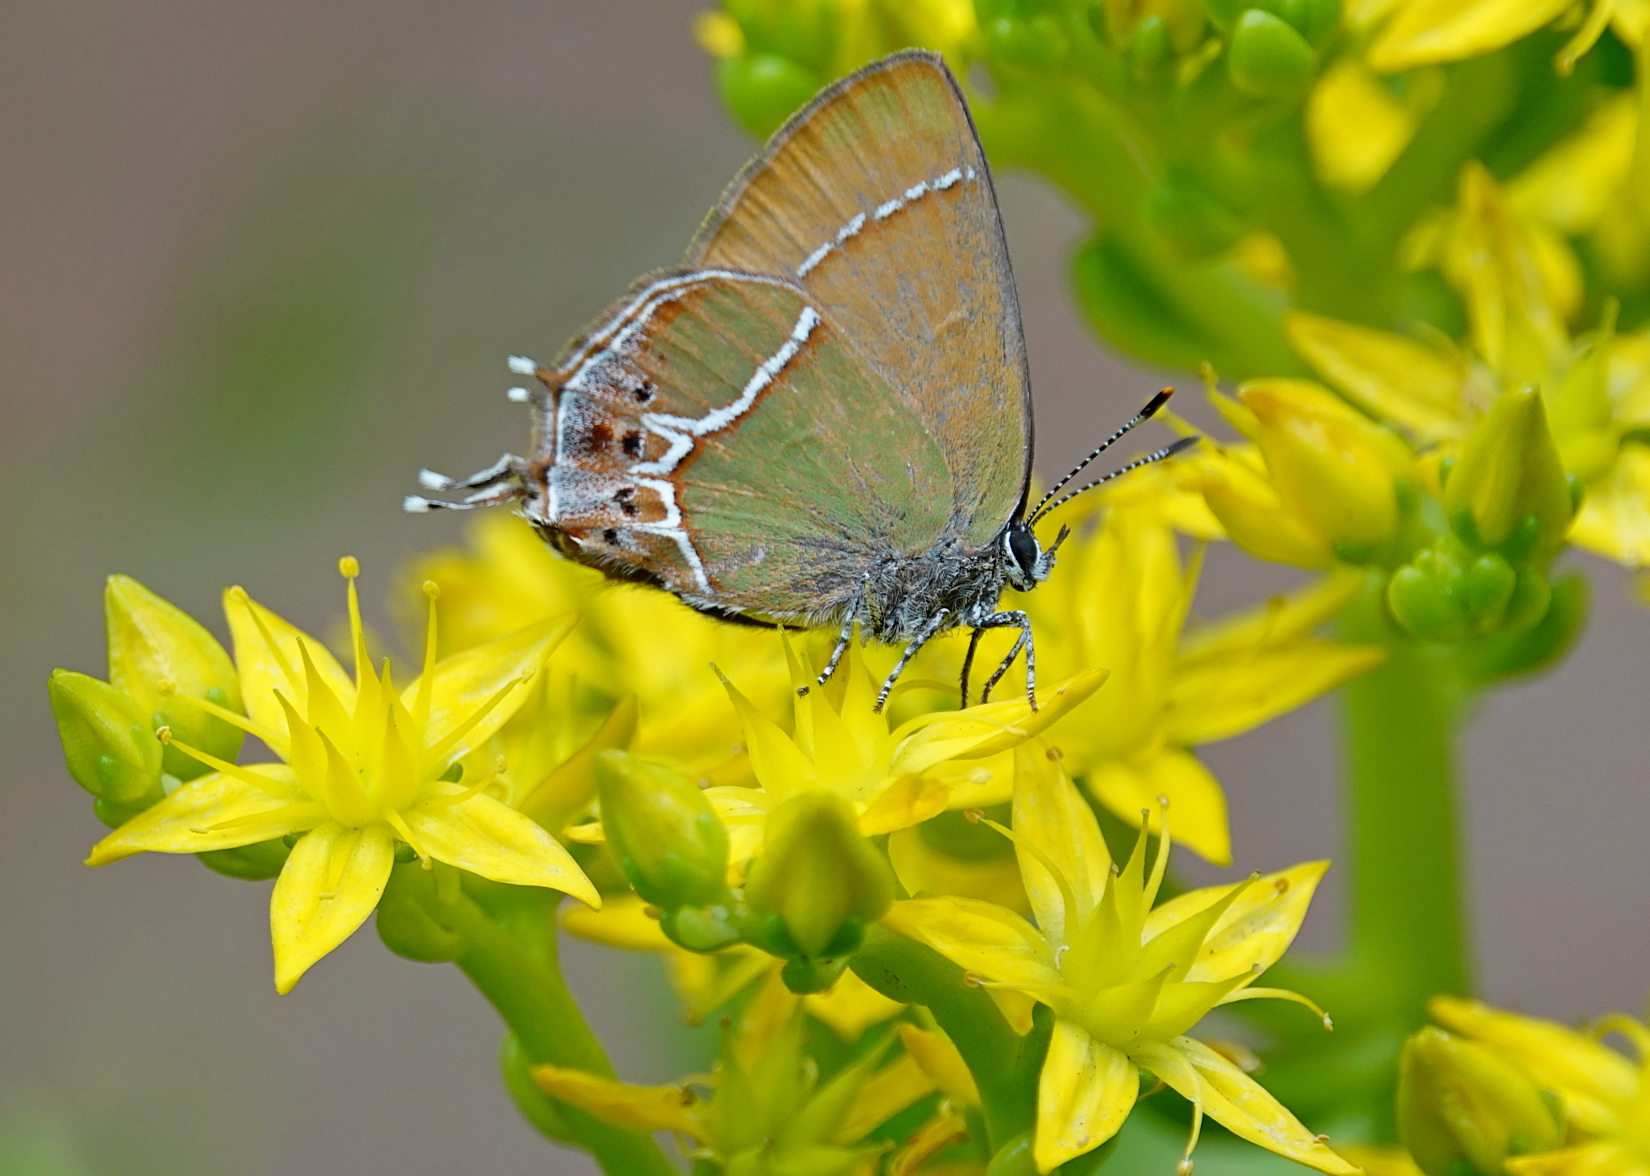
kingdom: Animalia
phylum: Arthropoda
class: Insecta
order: Lepidoptera
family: Lycaenidae
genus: Xamia
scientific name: Xamia xami
